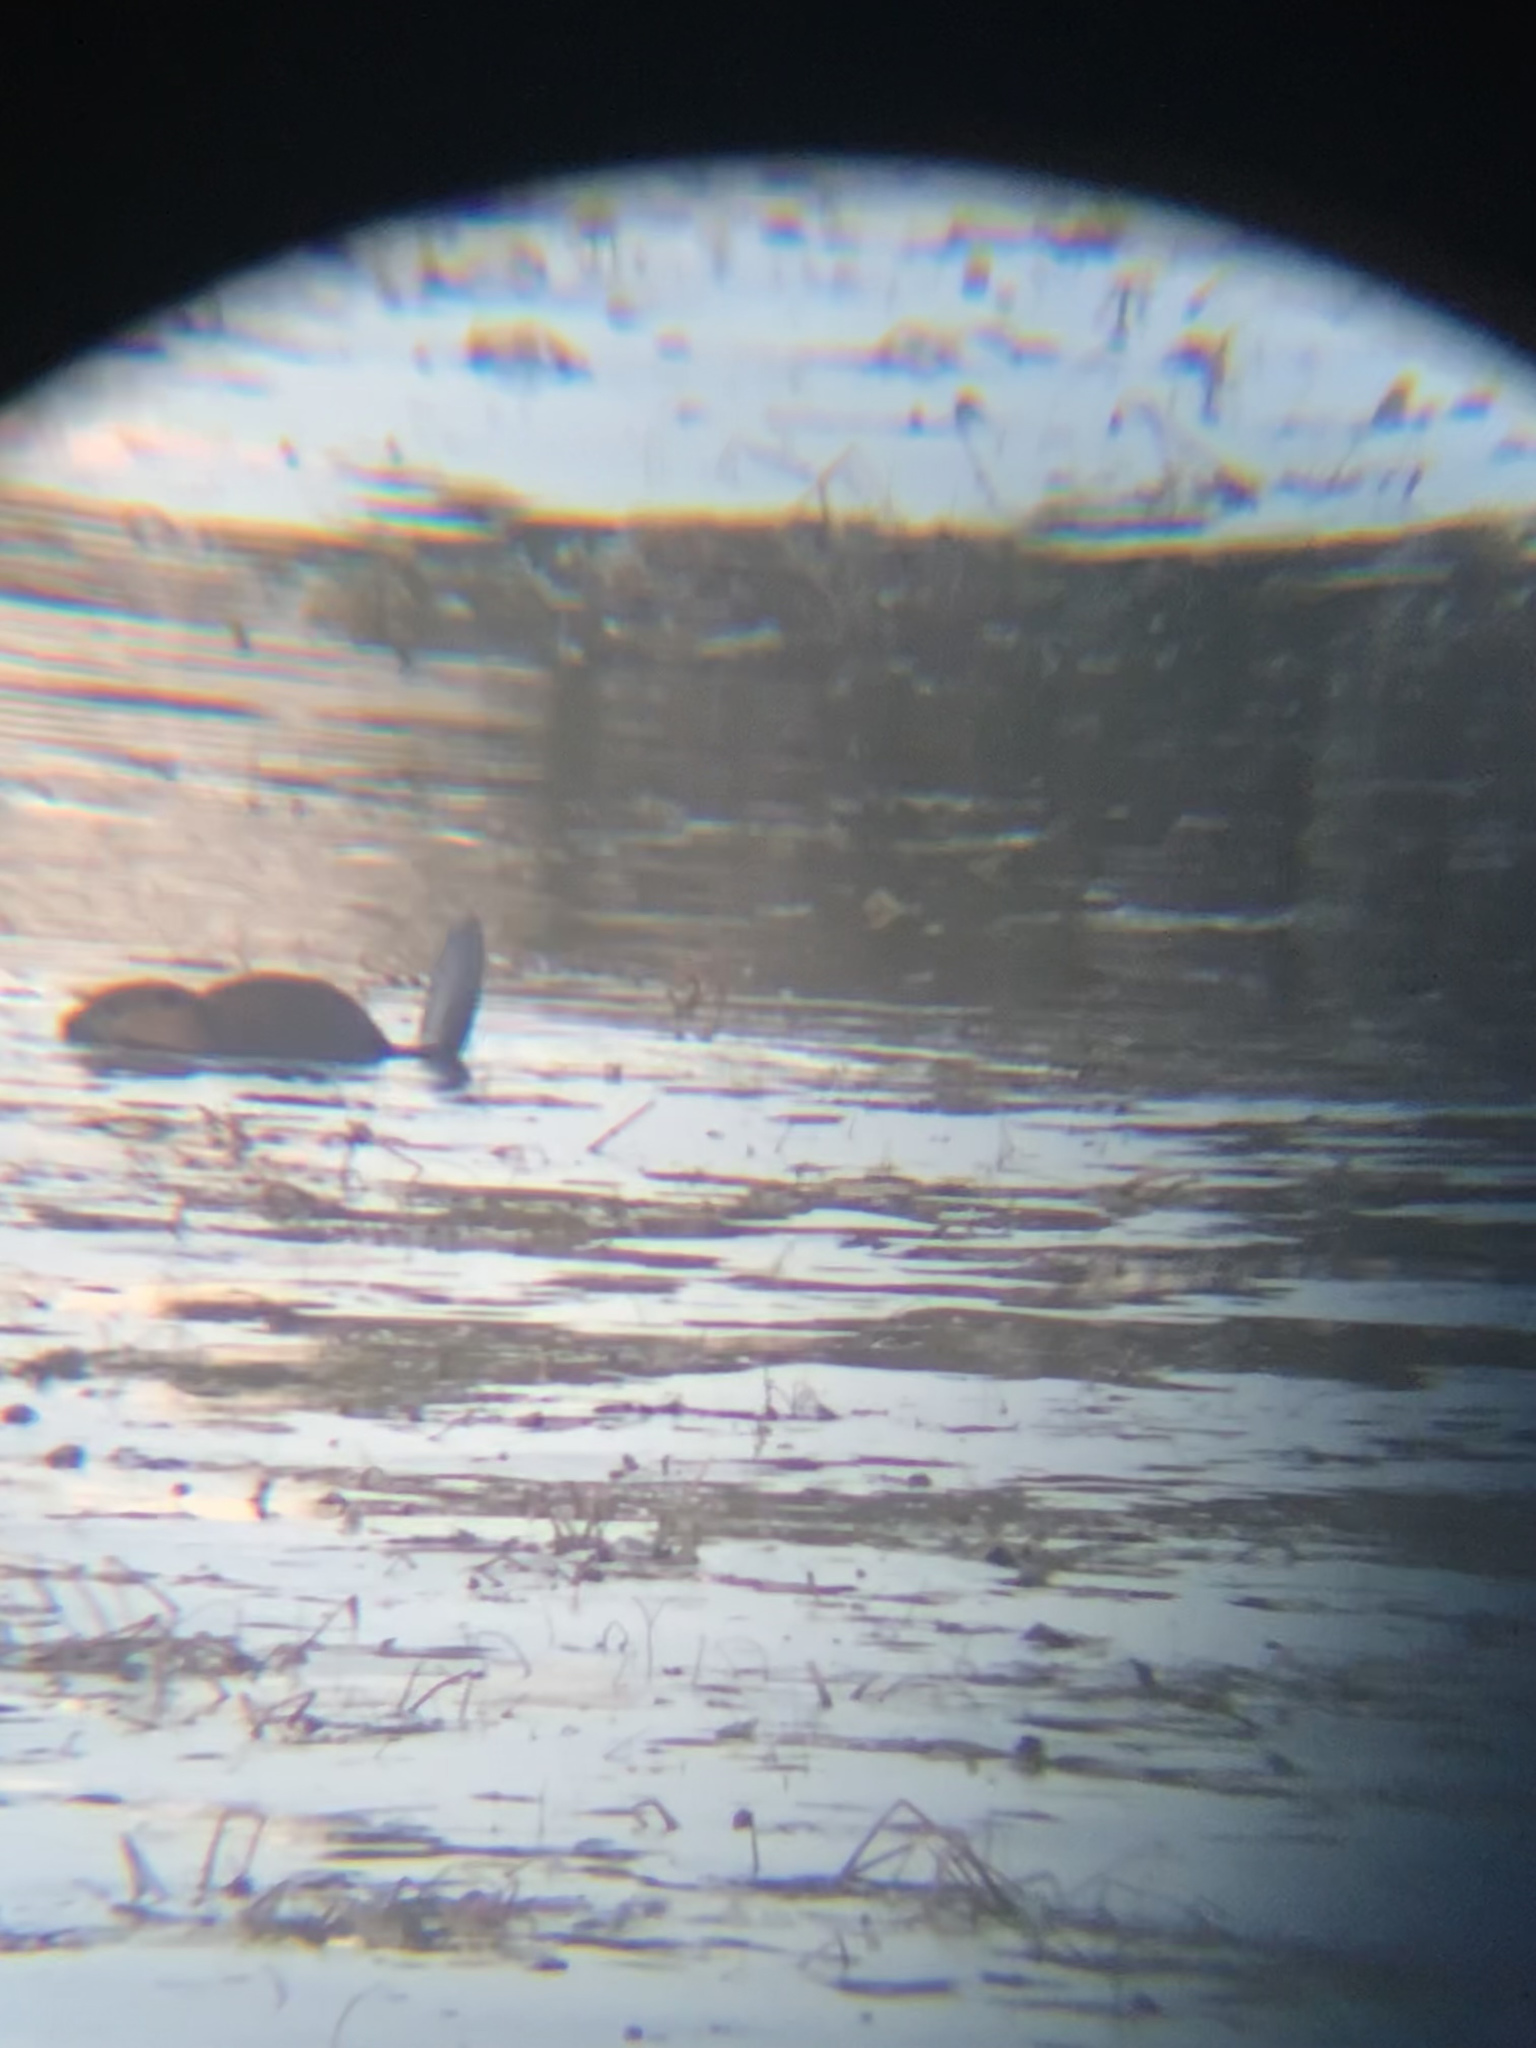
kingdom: Animalia
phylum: Chordata
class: Mammalia
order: Rodentia
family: Castoridae
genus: Castor
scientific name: Castor canadensis
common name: American beaver
